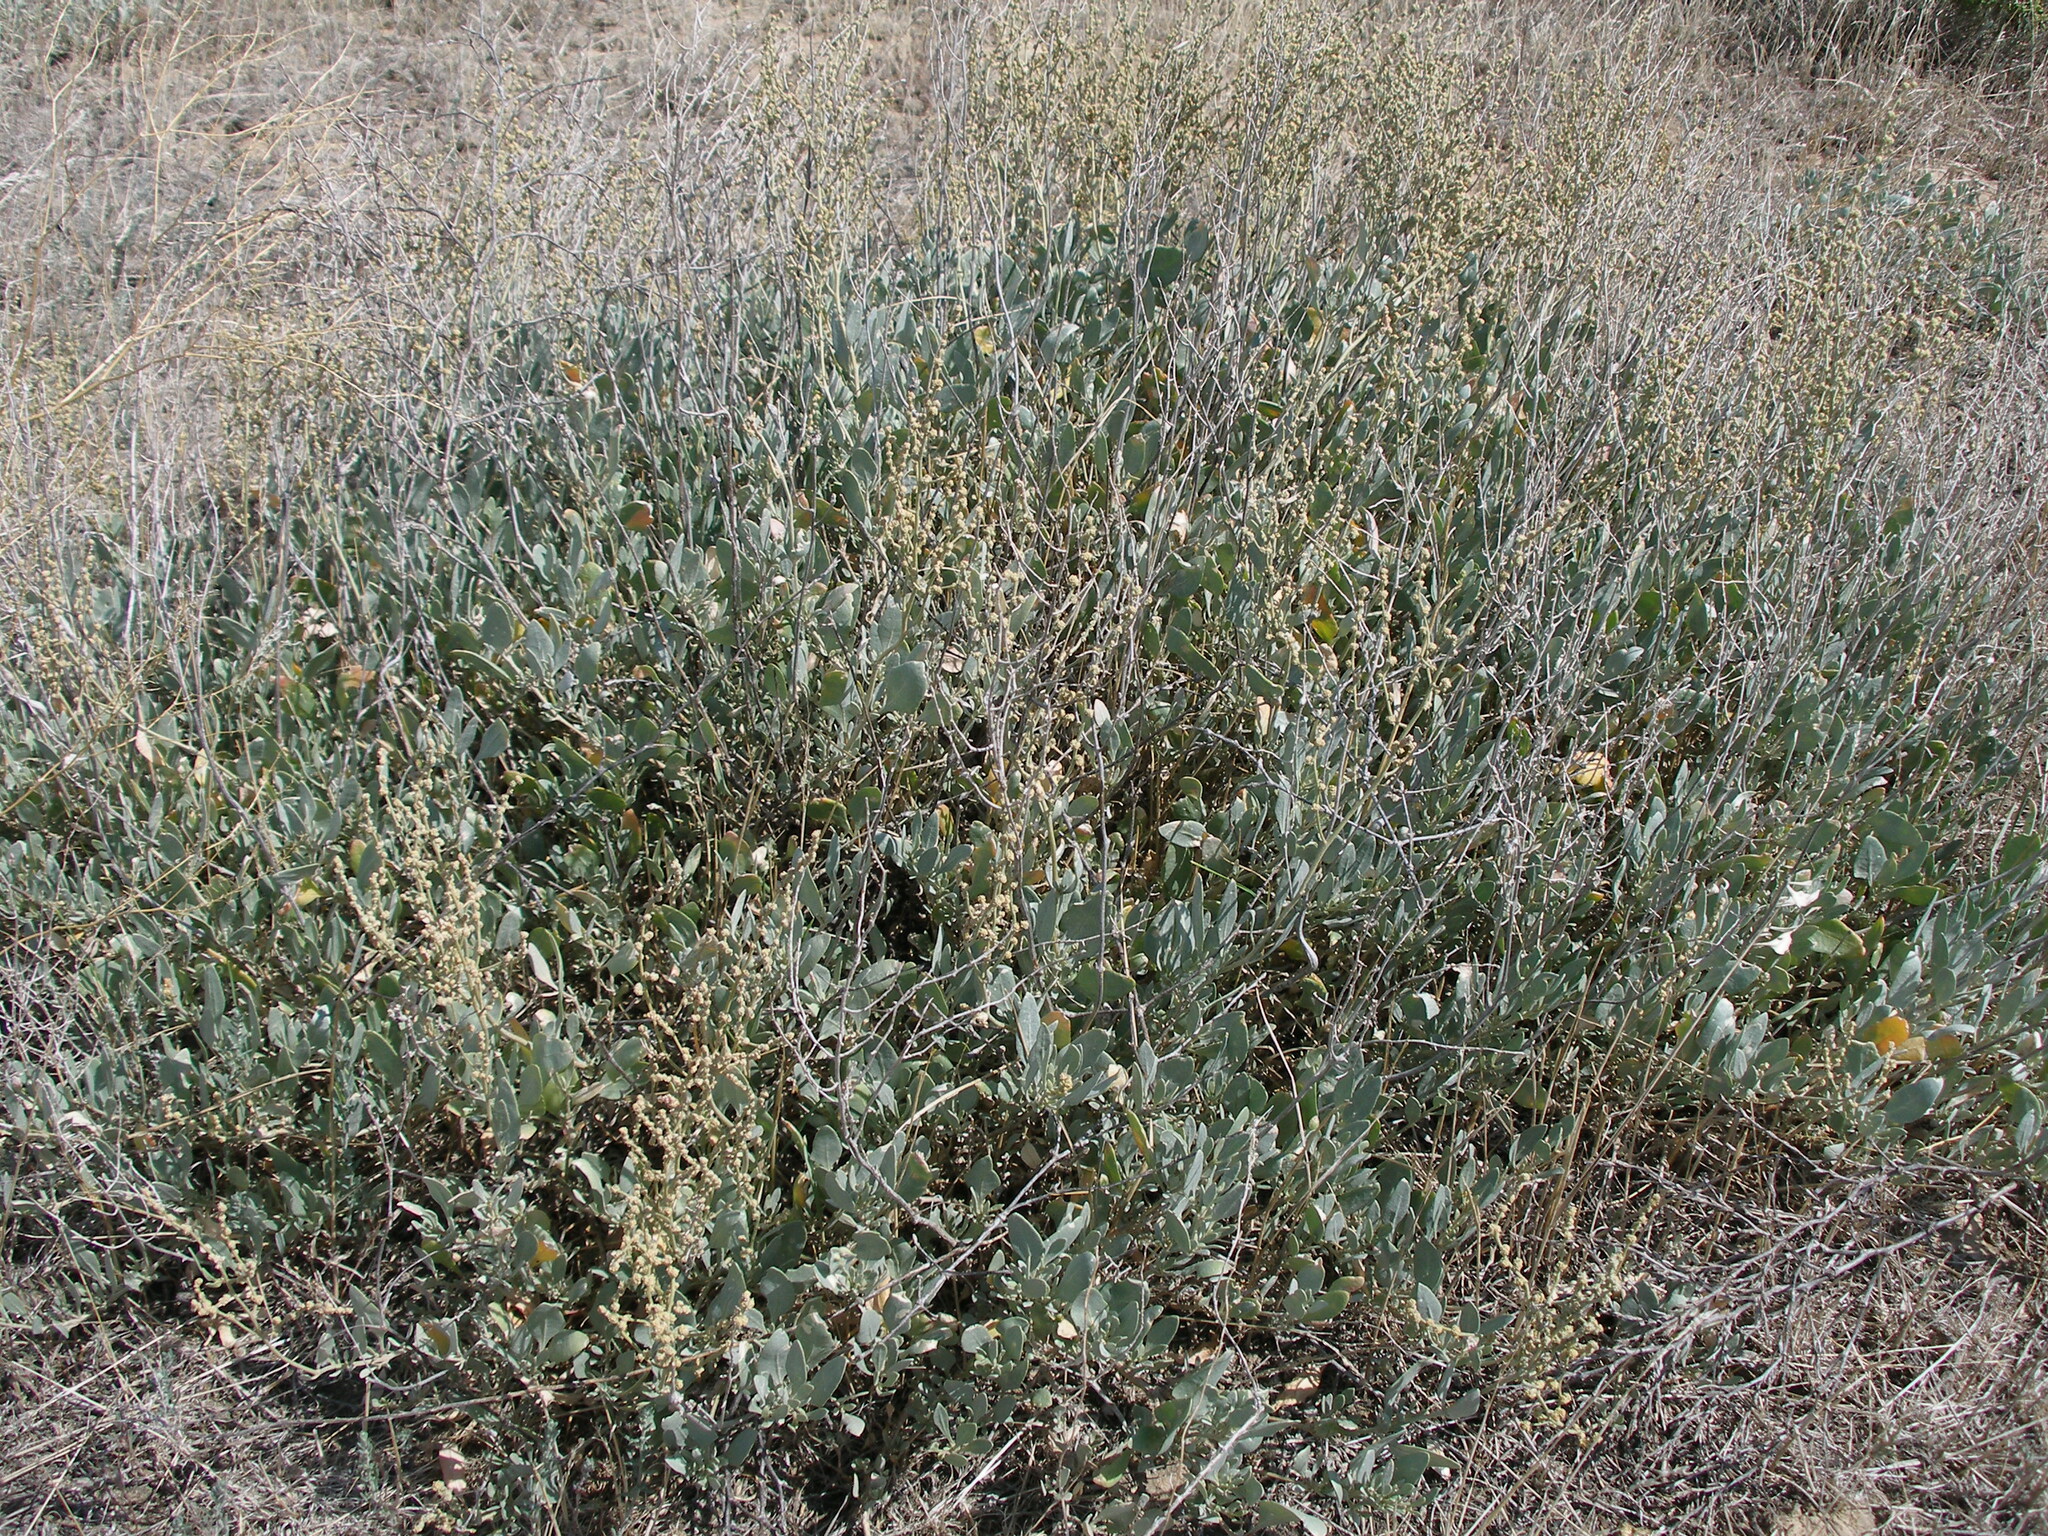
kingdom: Plantae
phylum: Tracheophyta
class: Magnoliopsida
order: Caryophyllales
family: Amaranthaceae
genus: Halimione
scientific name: Halimione verrucifera
